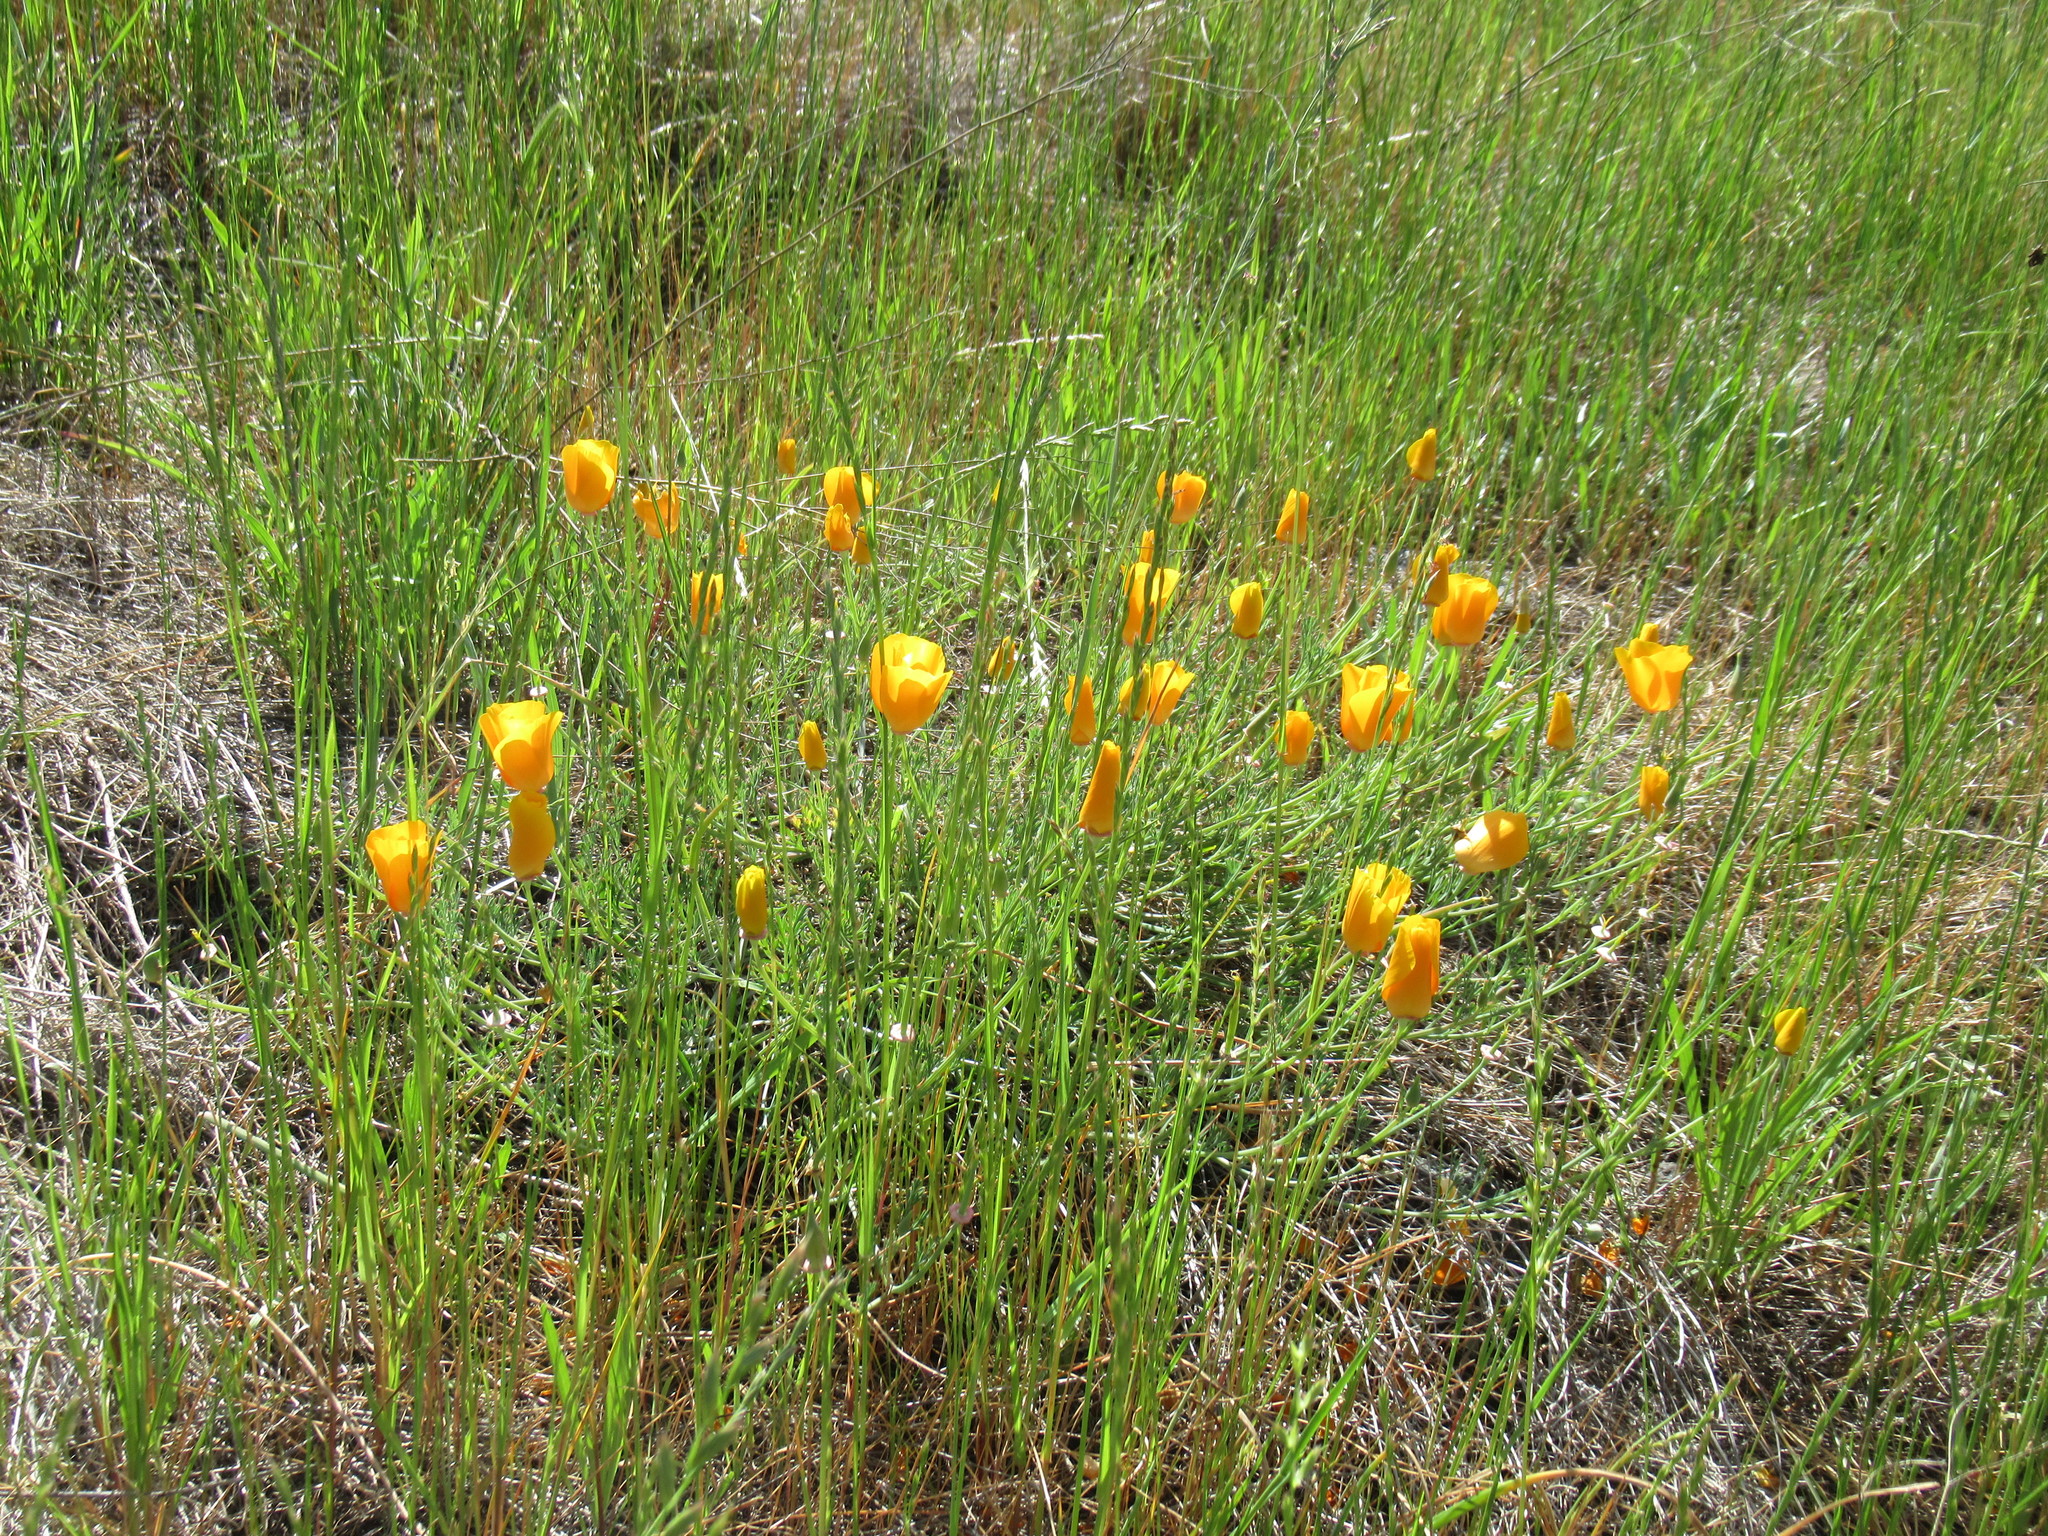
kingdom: Plantae
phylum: Tracheophyta
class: Magnoliopsida
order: Ranunculales
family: Papaveraceae
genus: Eschscholzia
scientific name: Eschscholzia californica
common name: California poppy
